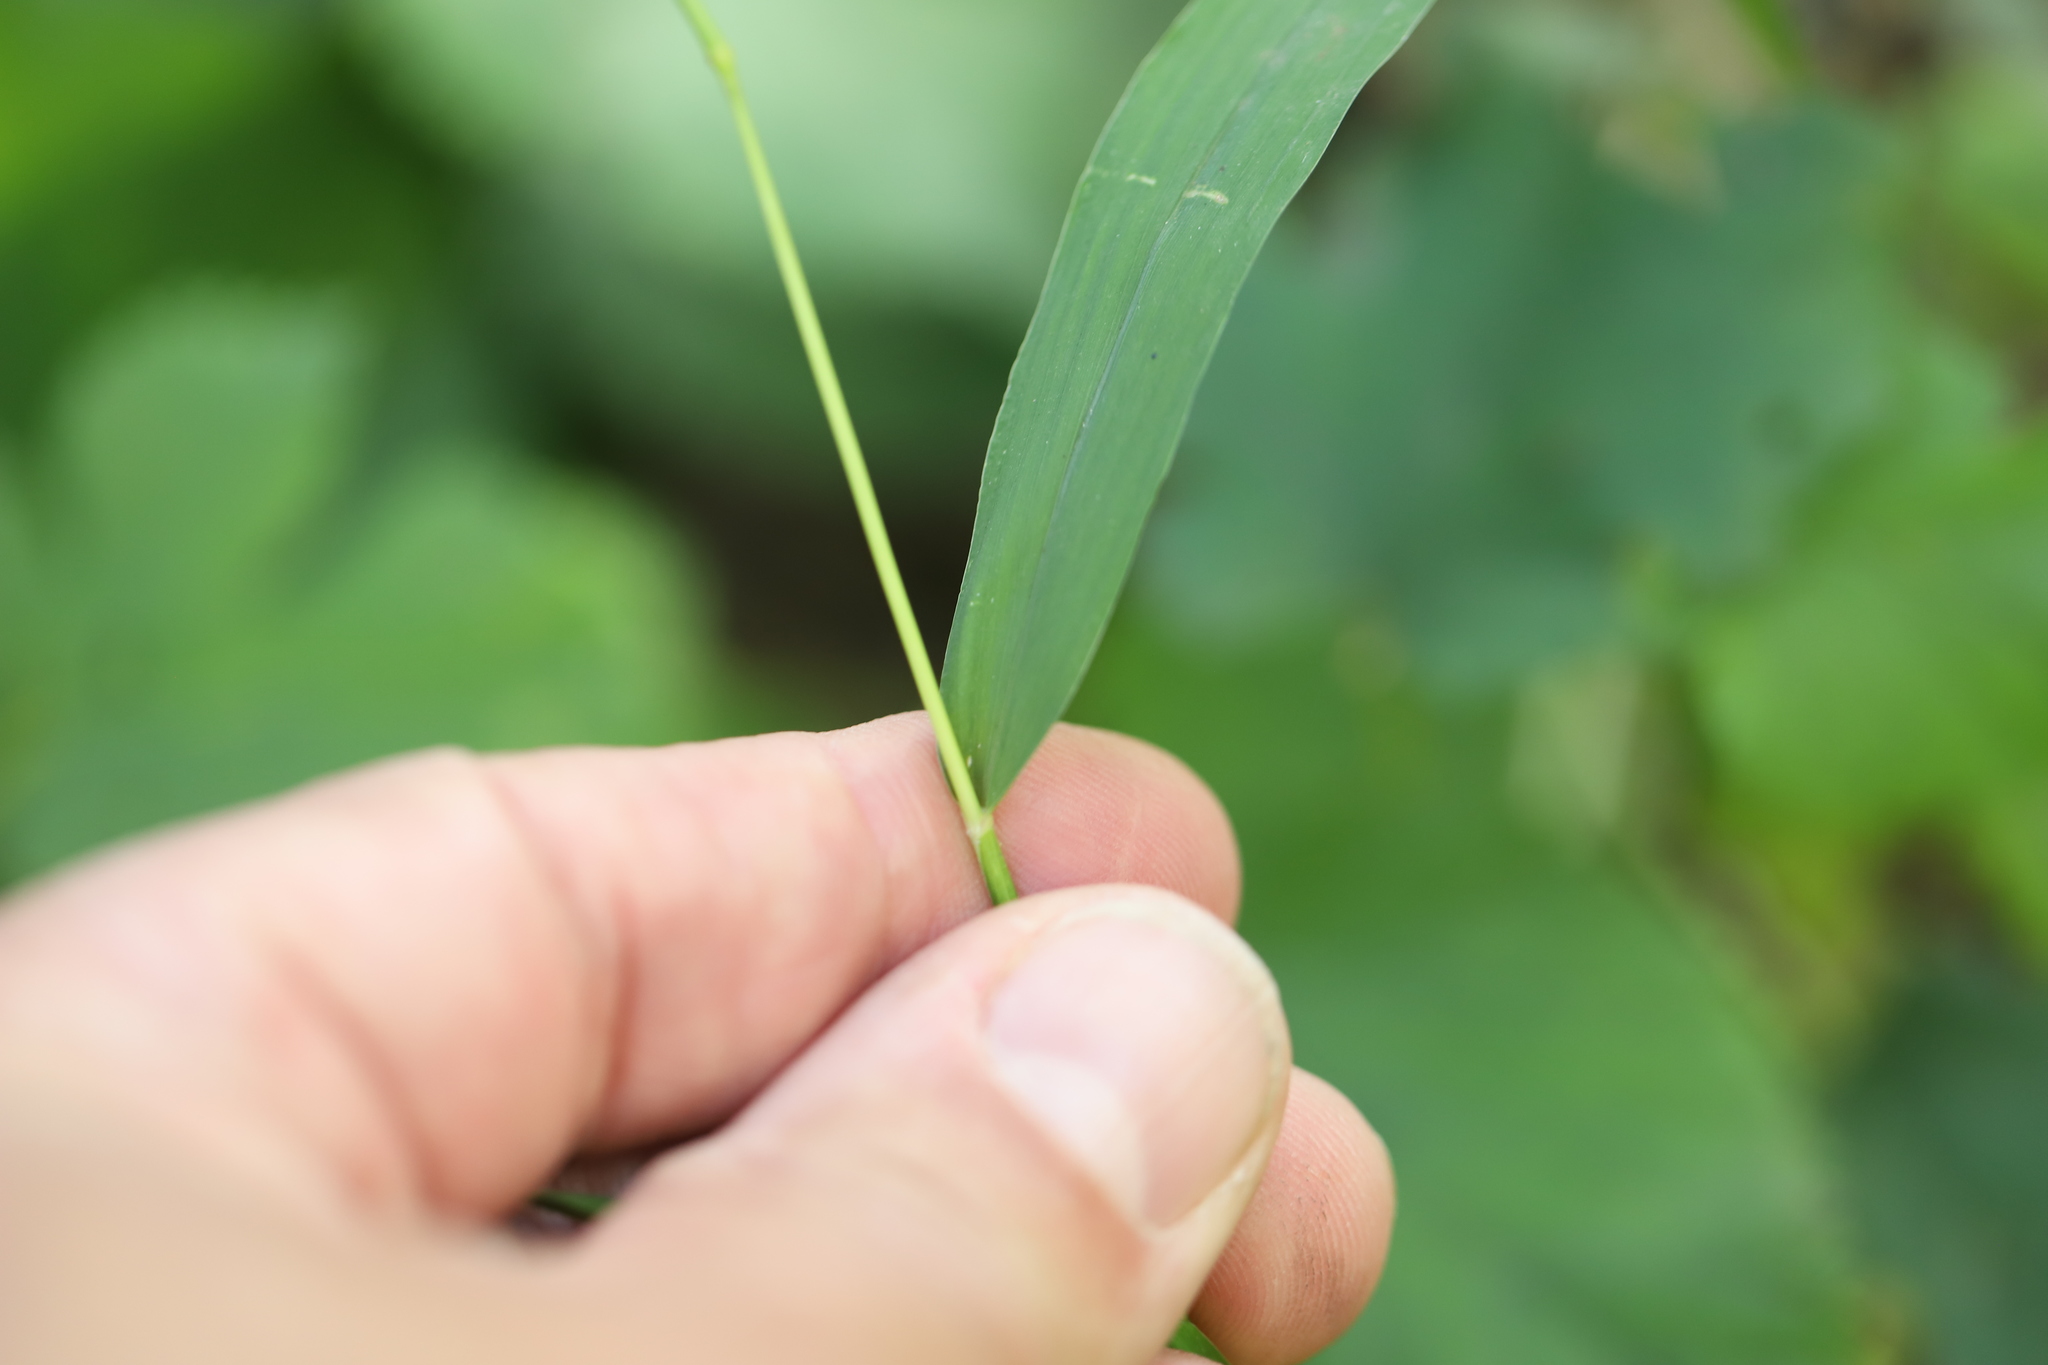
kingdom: Plantae
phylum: Tracheophyta
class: Liliopsida
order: Poales
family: Poaceae
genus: Setaria
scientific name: Setaria viridis
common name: Green bristlegrass
